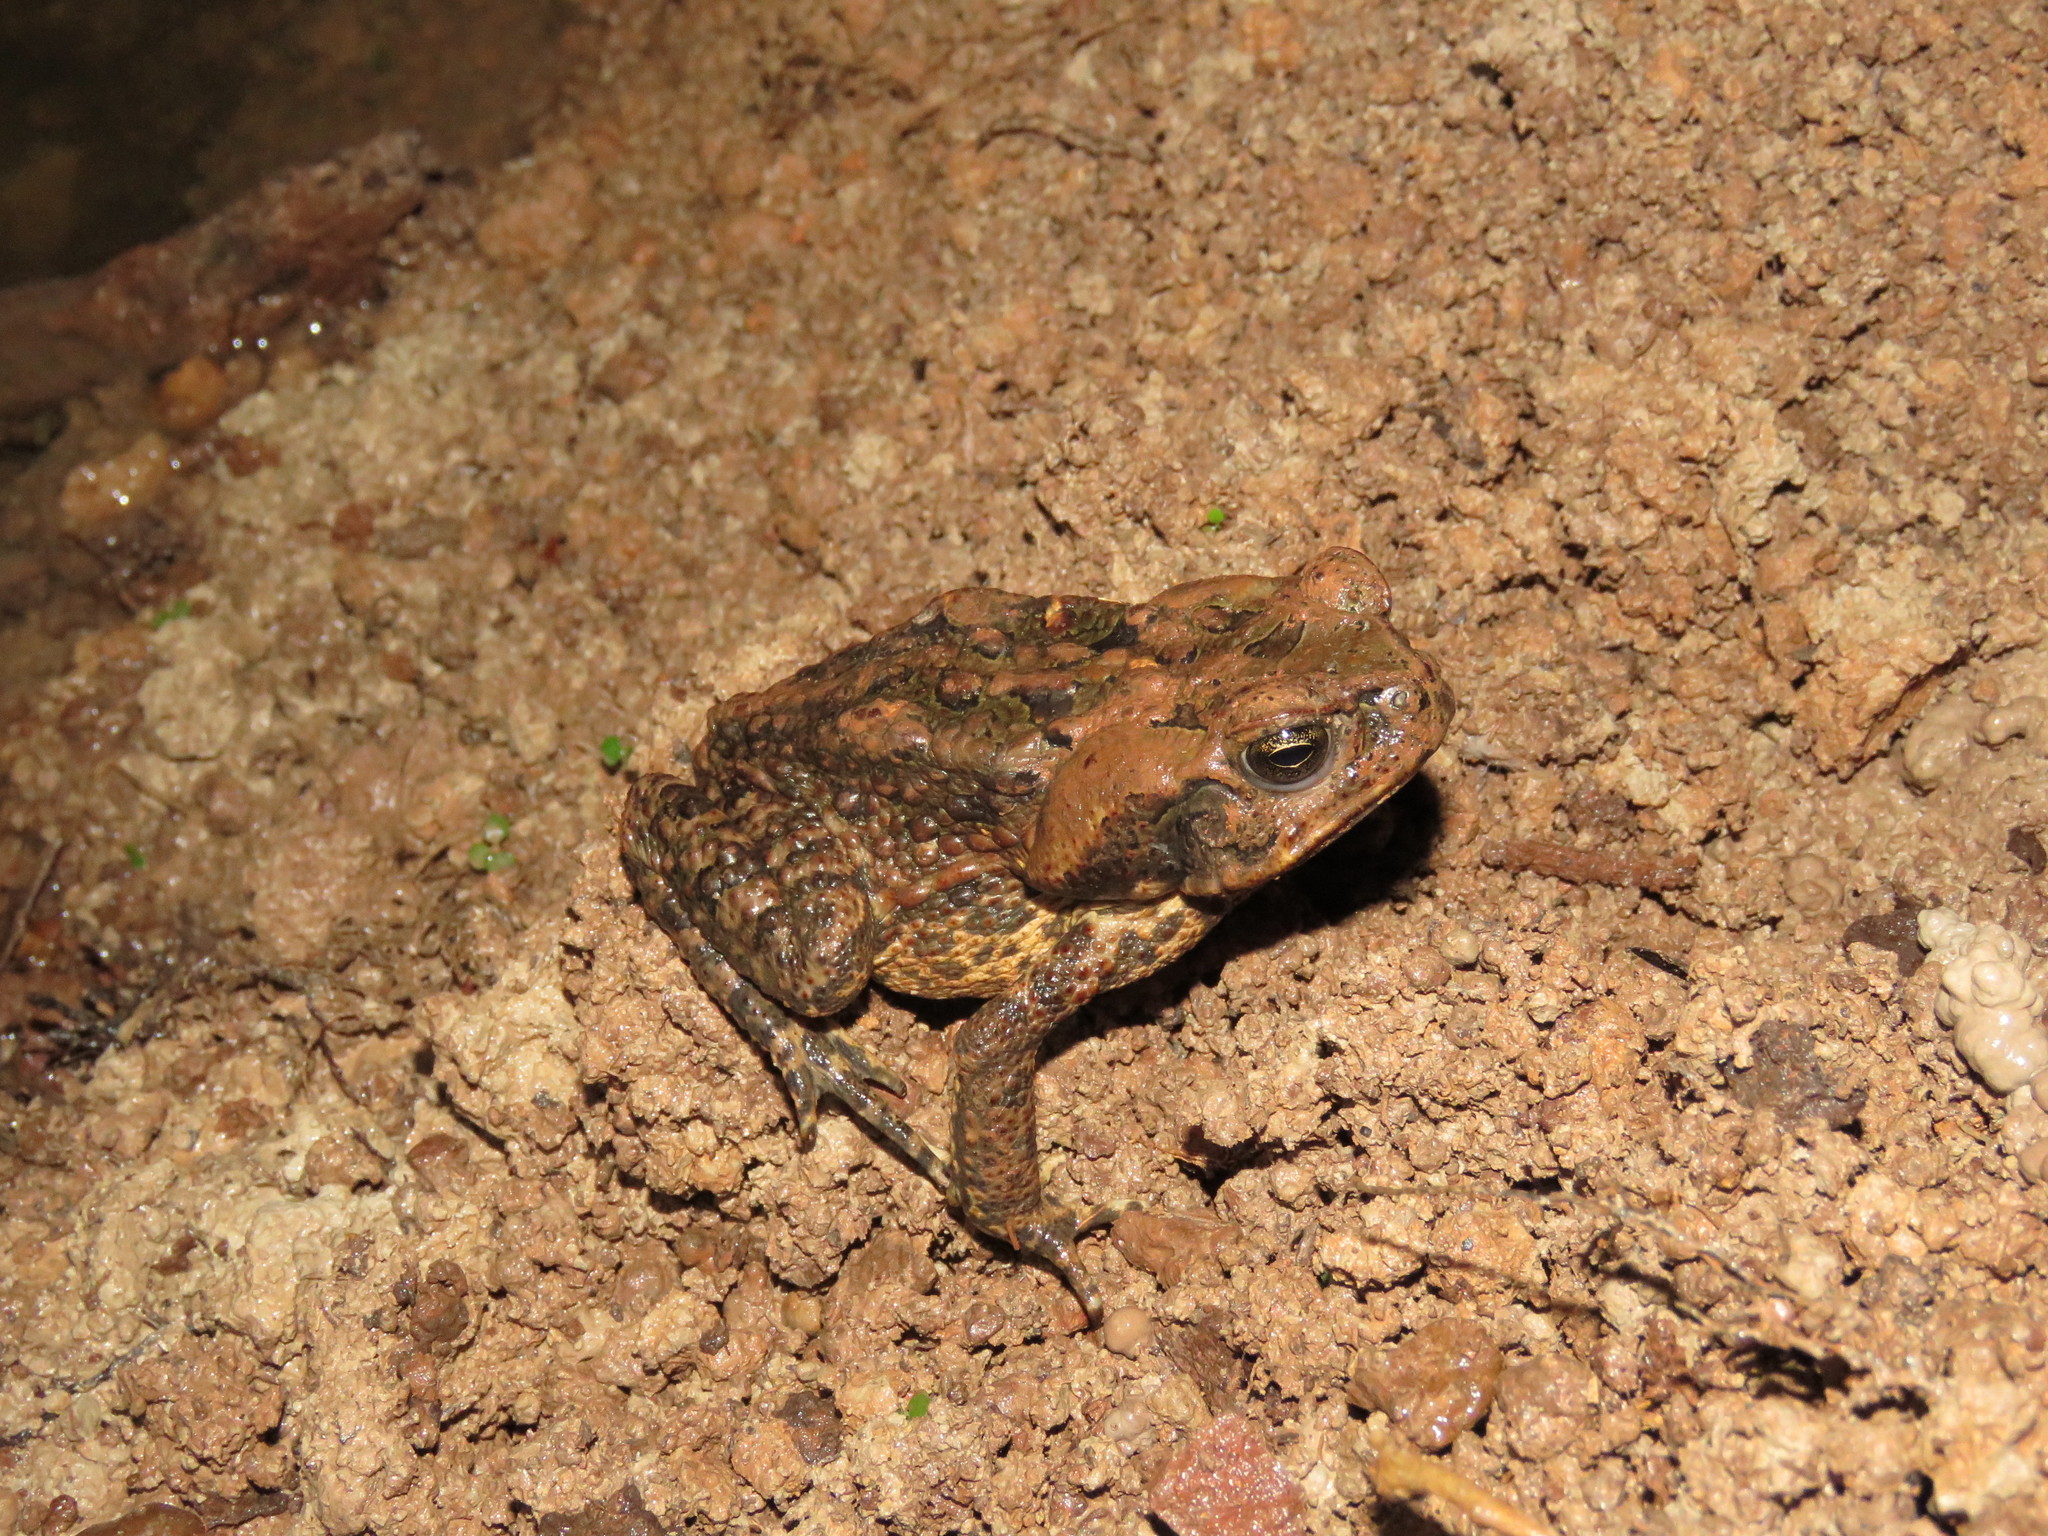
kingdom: Animalia
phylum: Chordata
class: Amphibia
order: Anura
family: Bufonidae
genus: Rhinella
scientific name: Rhinella diptycha
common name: Cope's toad
